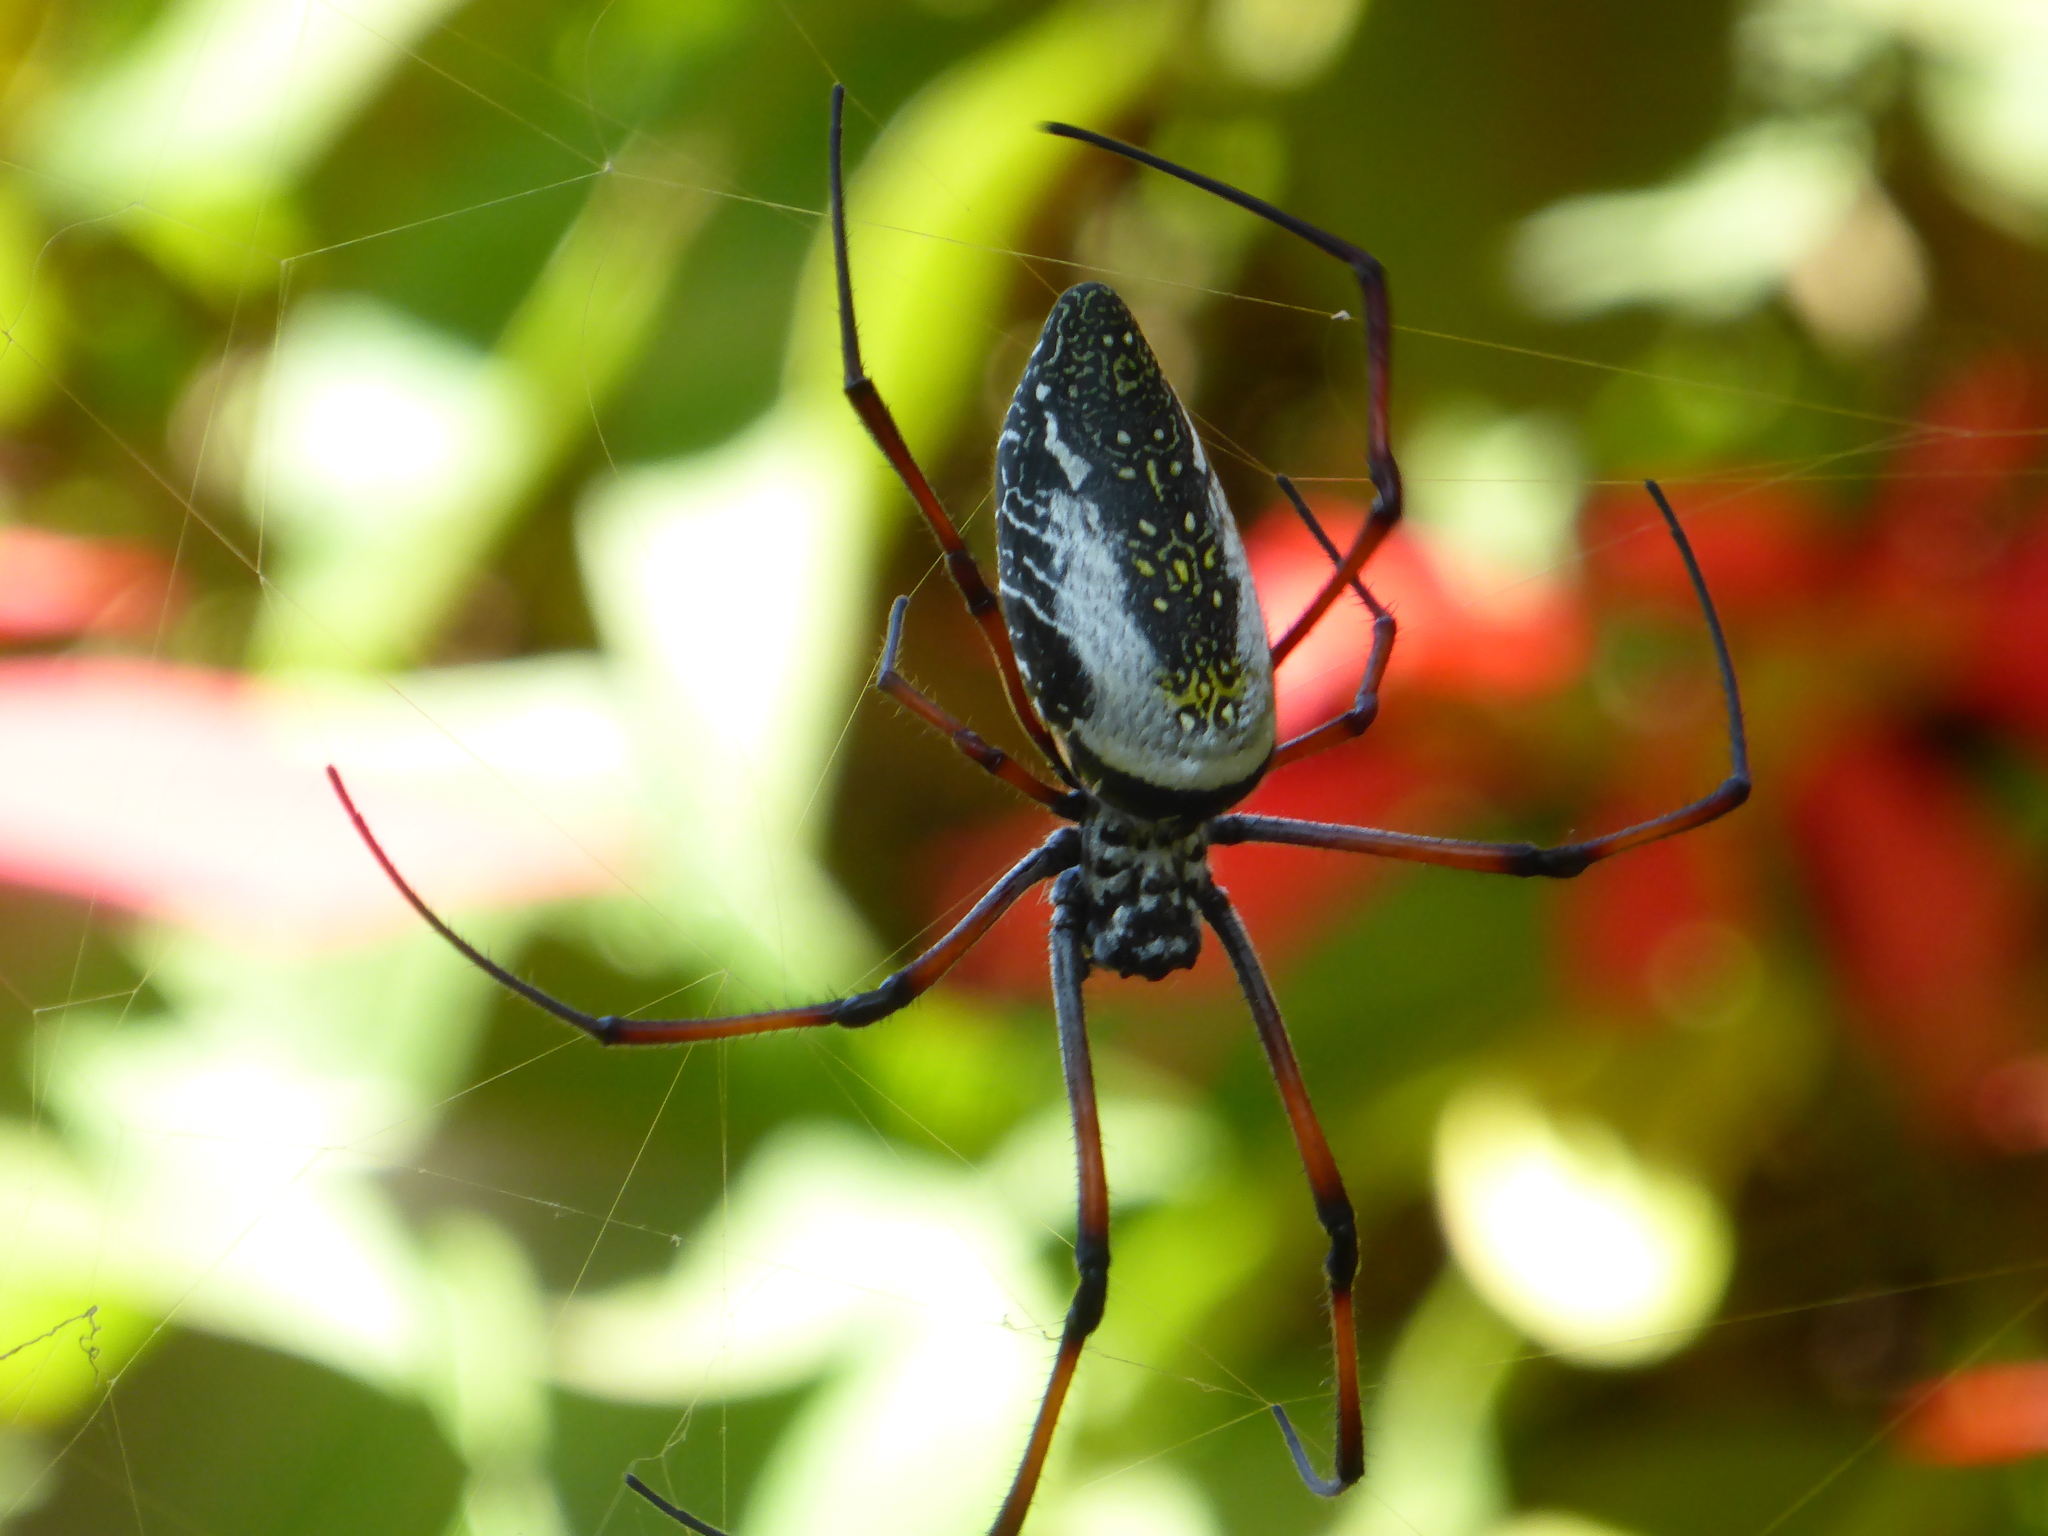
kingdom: Animalia
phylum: Arthropoda
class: Arachnida
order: Araneae
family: Araneidae
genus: Trichonephila
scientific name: Trichonephila inaurata
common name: Red-legged golden orb weaver
